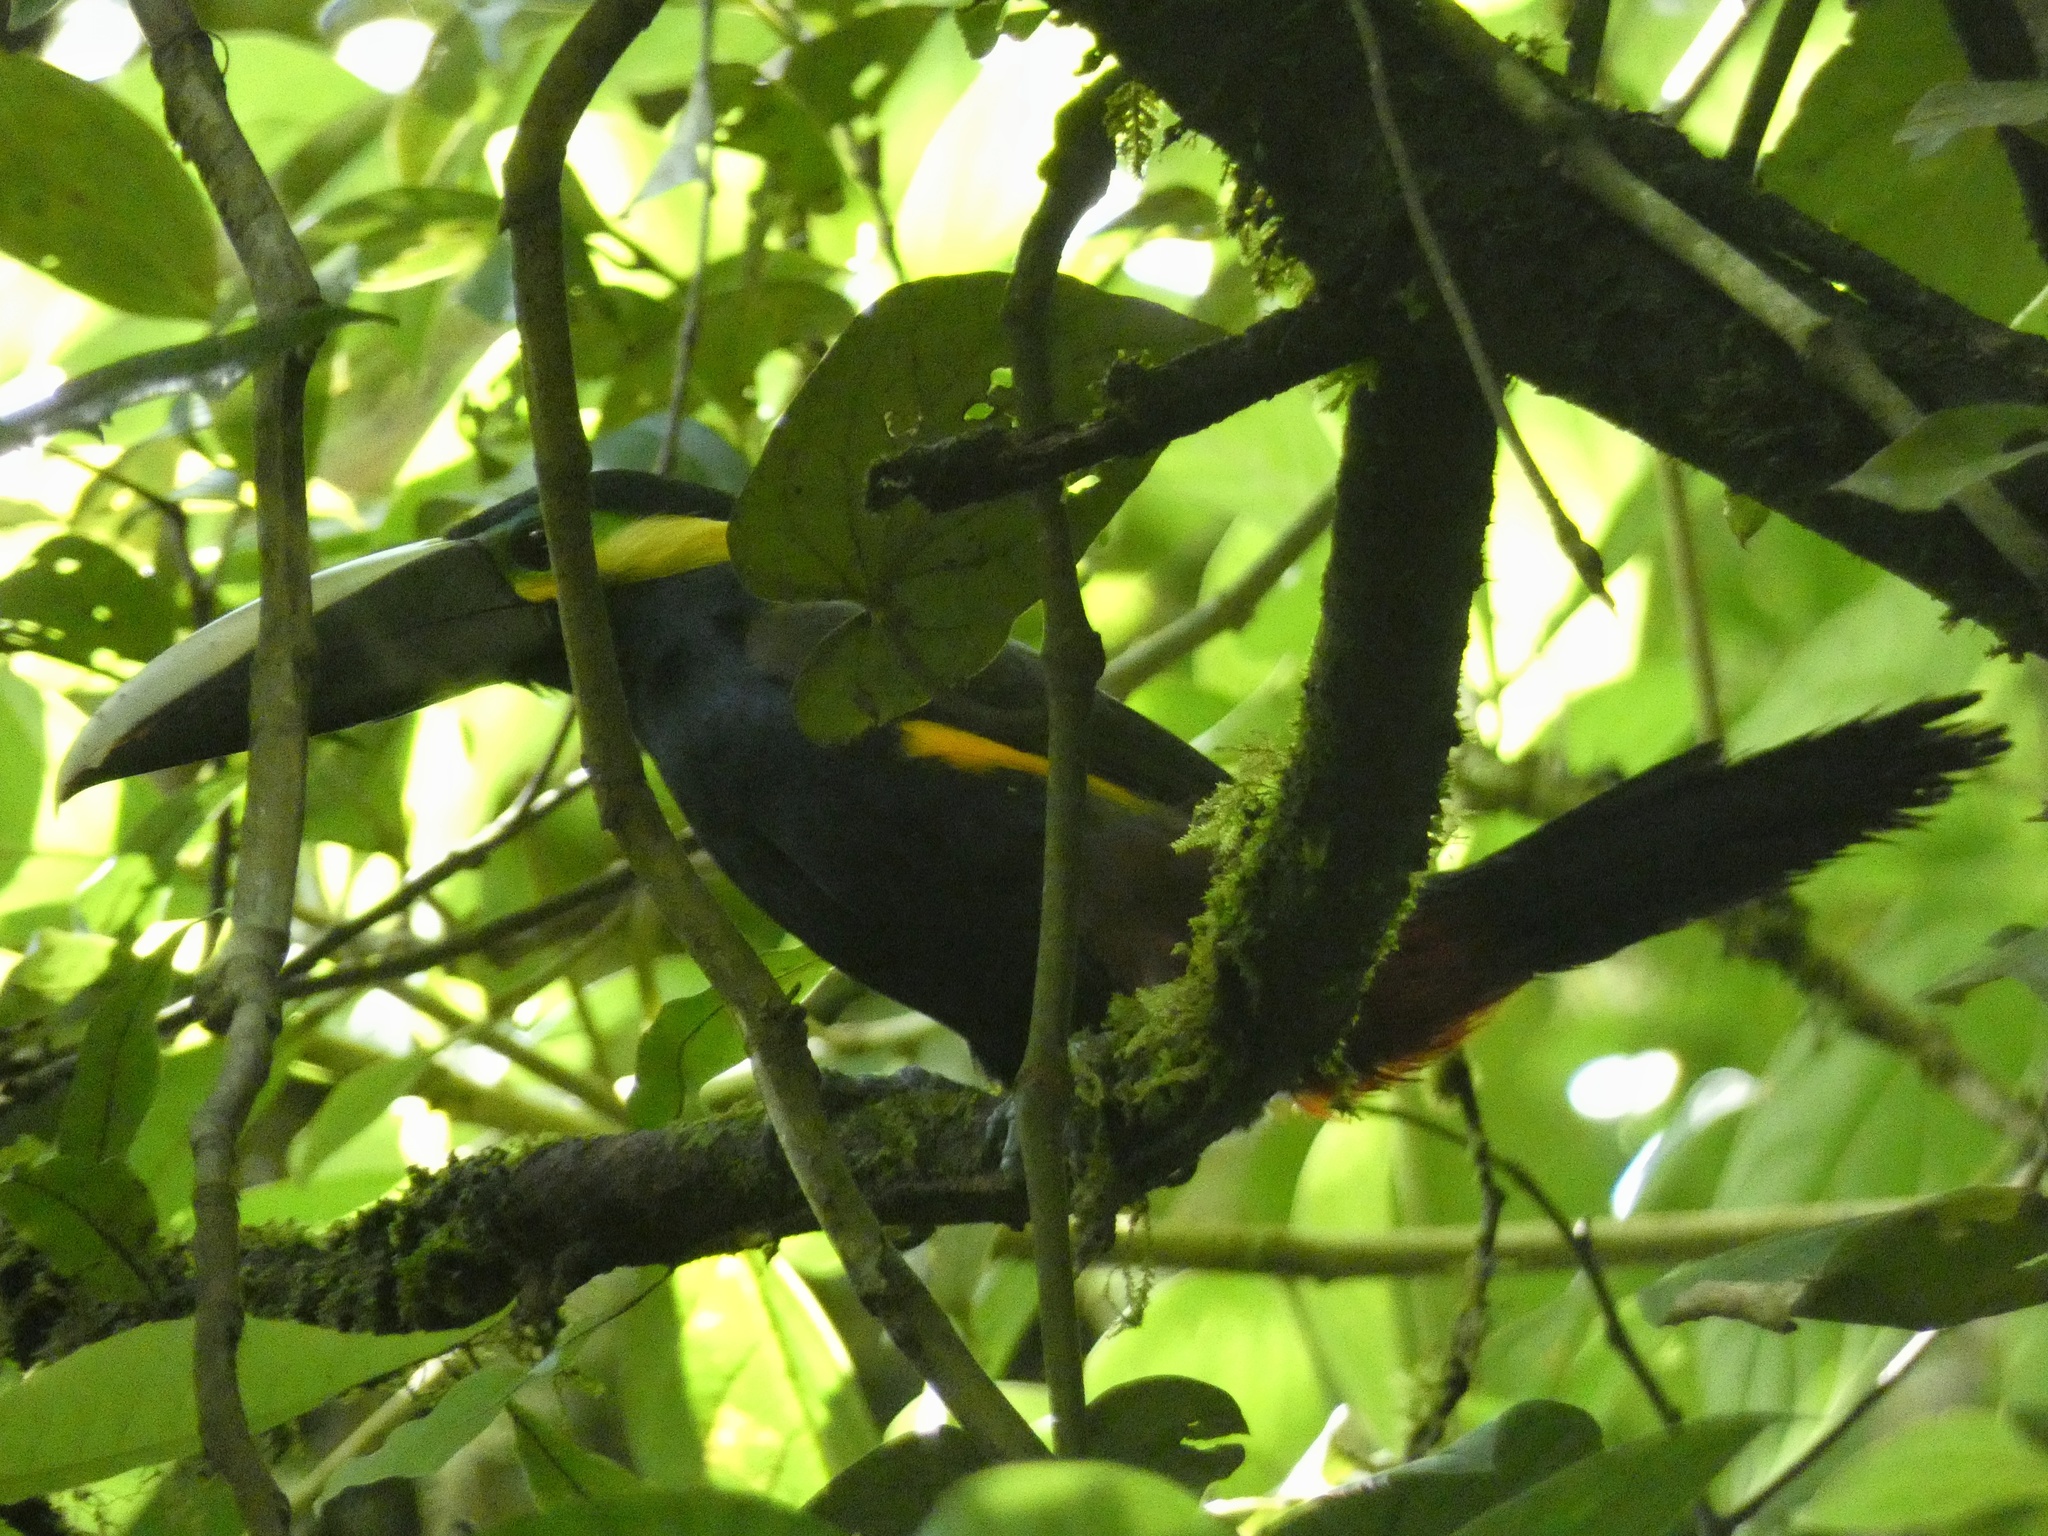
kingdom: Animalia
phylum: Chordata
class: Aves
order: Piciformes
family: Ramphastidae
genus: Selenidera
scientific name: Selenidera spectabilis
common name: Yellow-eared toucanet
